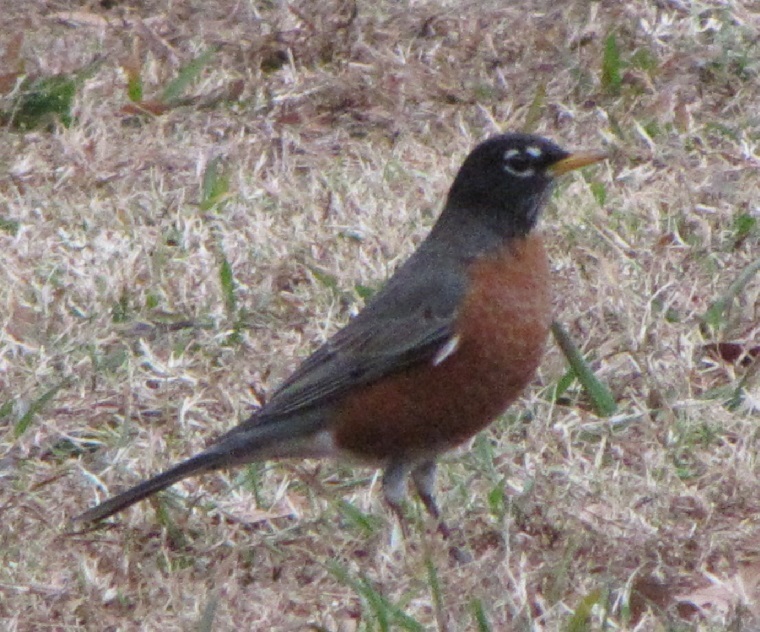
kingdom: Animalia
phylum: Chordata
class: Aves
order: Passeriformes
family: Turdidae
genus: Turdus
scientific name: Turdus migratorius
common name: American robin
